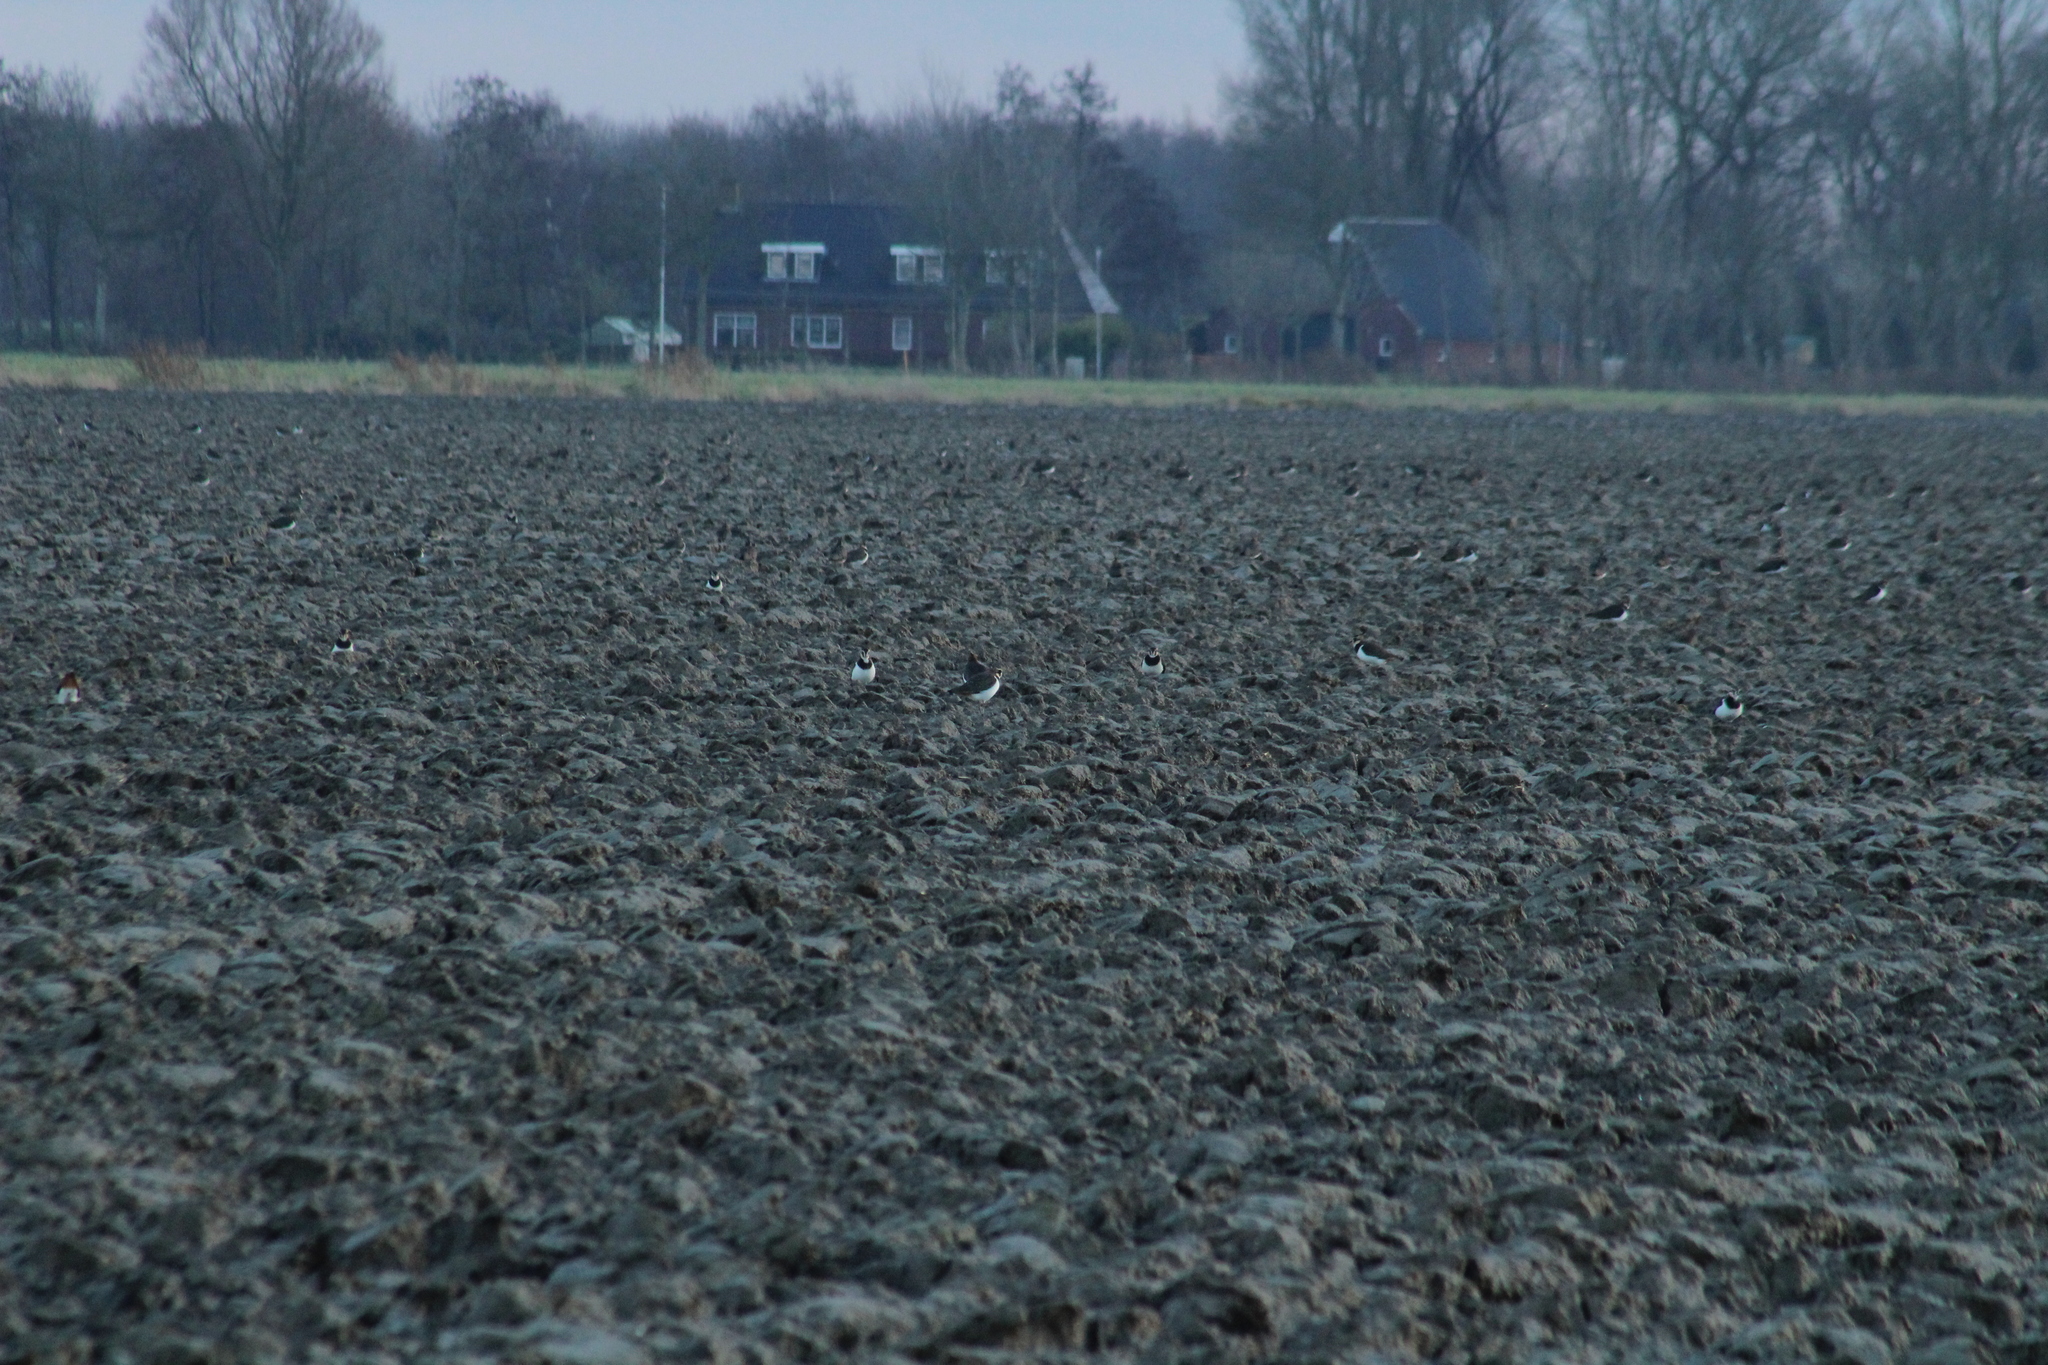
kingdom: Animalia
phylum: Chordata
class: Aves
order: Charadriiformes
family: Charadriidae
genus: Vanellus
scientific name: Vanellus vanellus
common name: Northern lapwing
